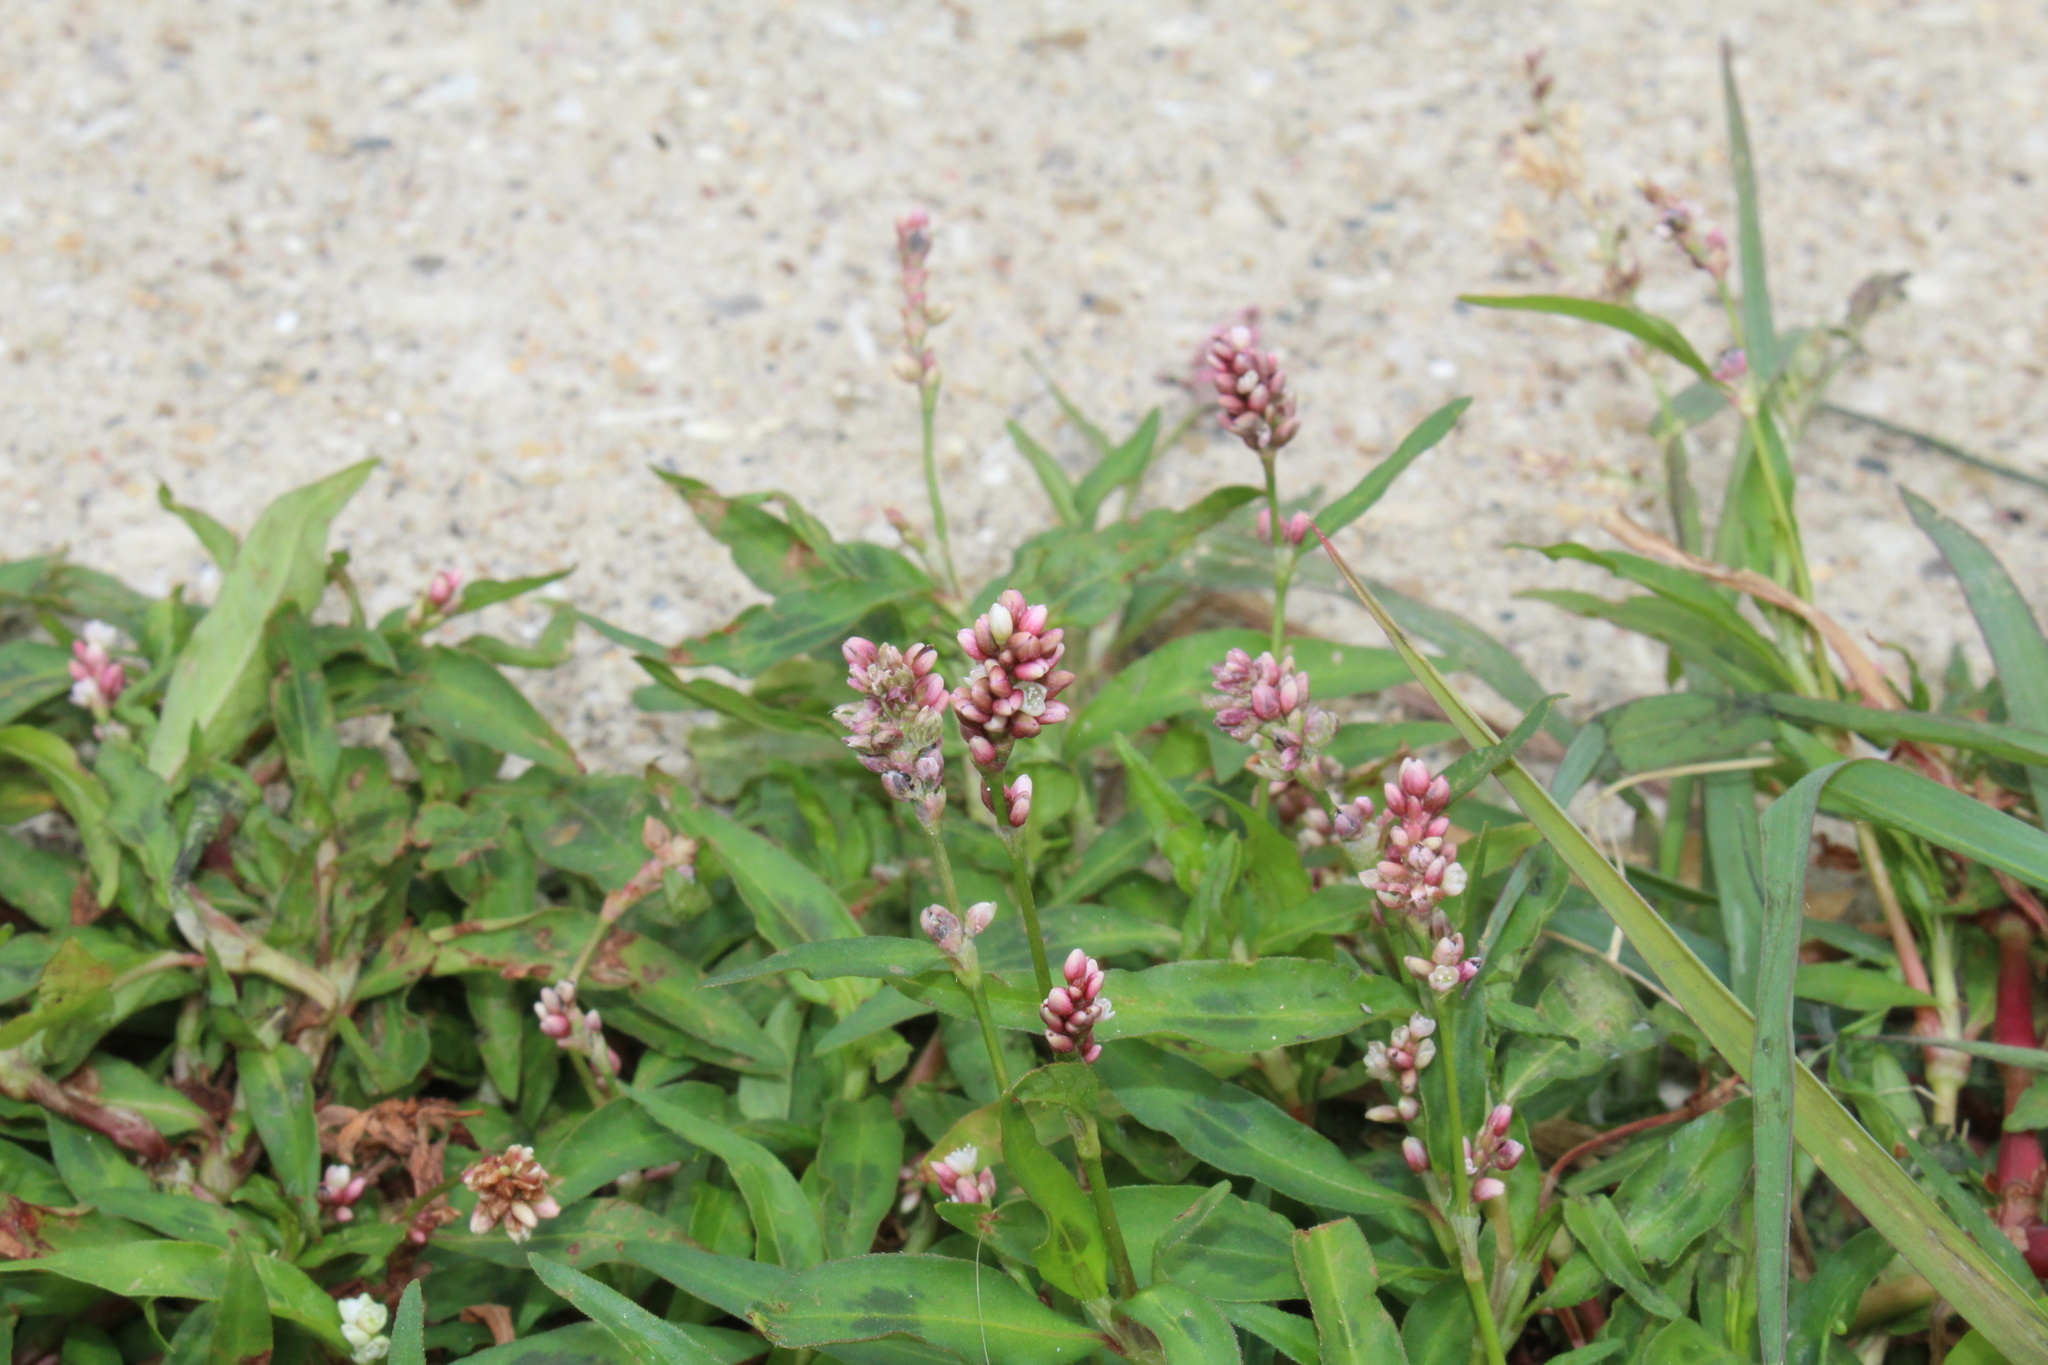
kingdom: Plantae
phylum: Tracheophyta
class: Magnoliopsida
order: Caryophyllales
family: Polygonaceae
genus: Persicaria
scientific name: Persicaria maculosa
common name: Redshank
